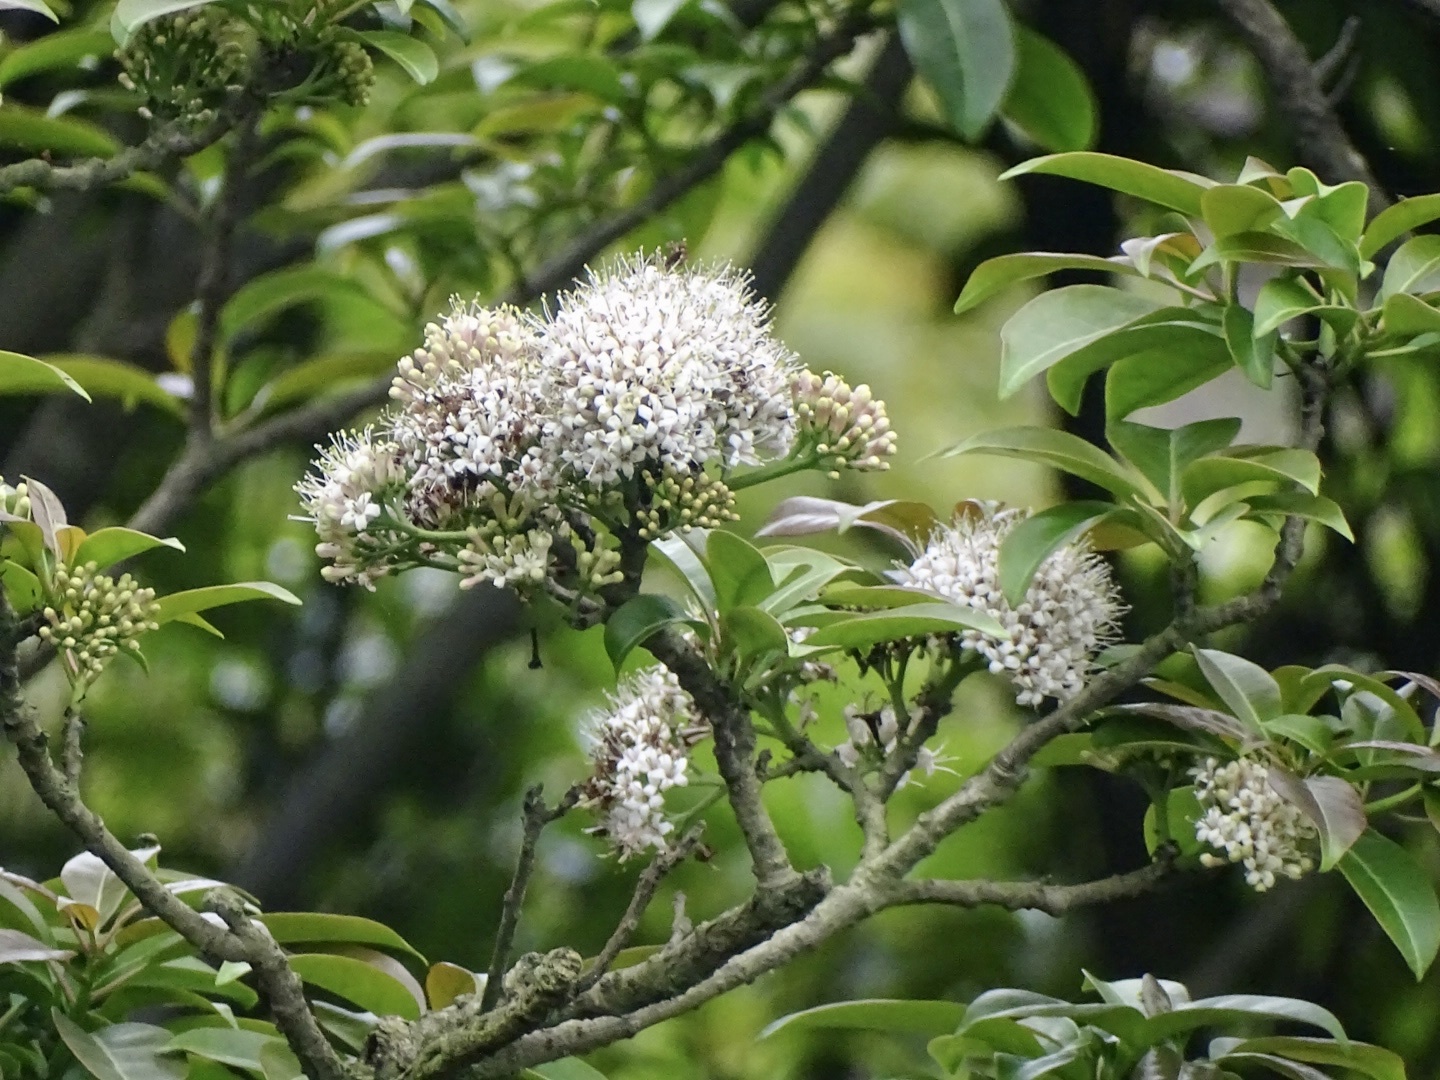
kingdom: Plantae
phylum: Tracheophyta
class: Magnoliopsida
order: Boraginales
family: Ehretiaceae
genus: Ehretia
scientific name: Ehretia longiflora
